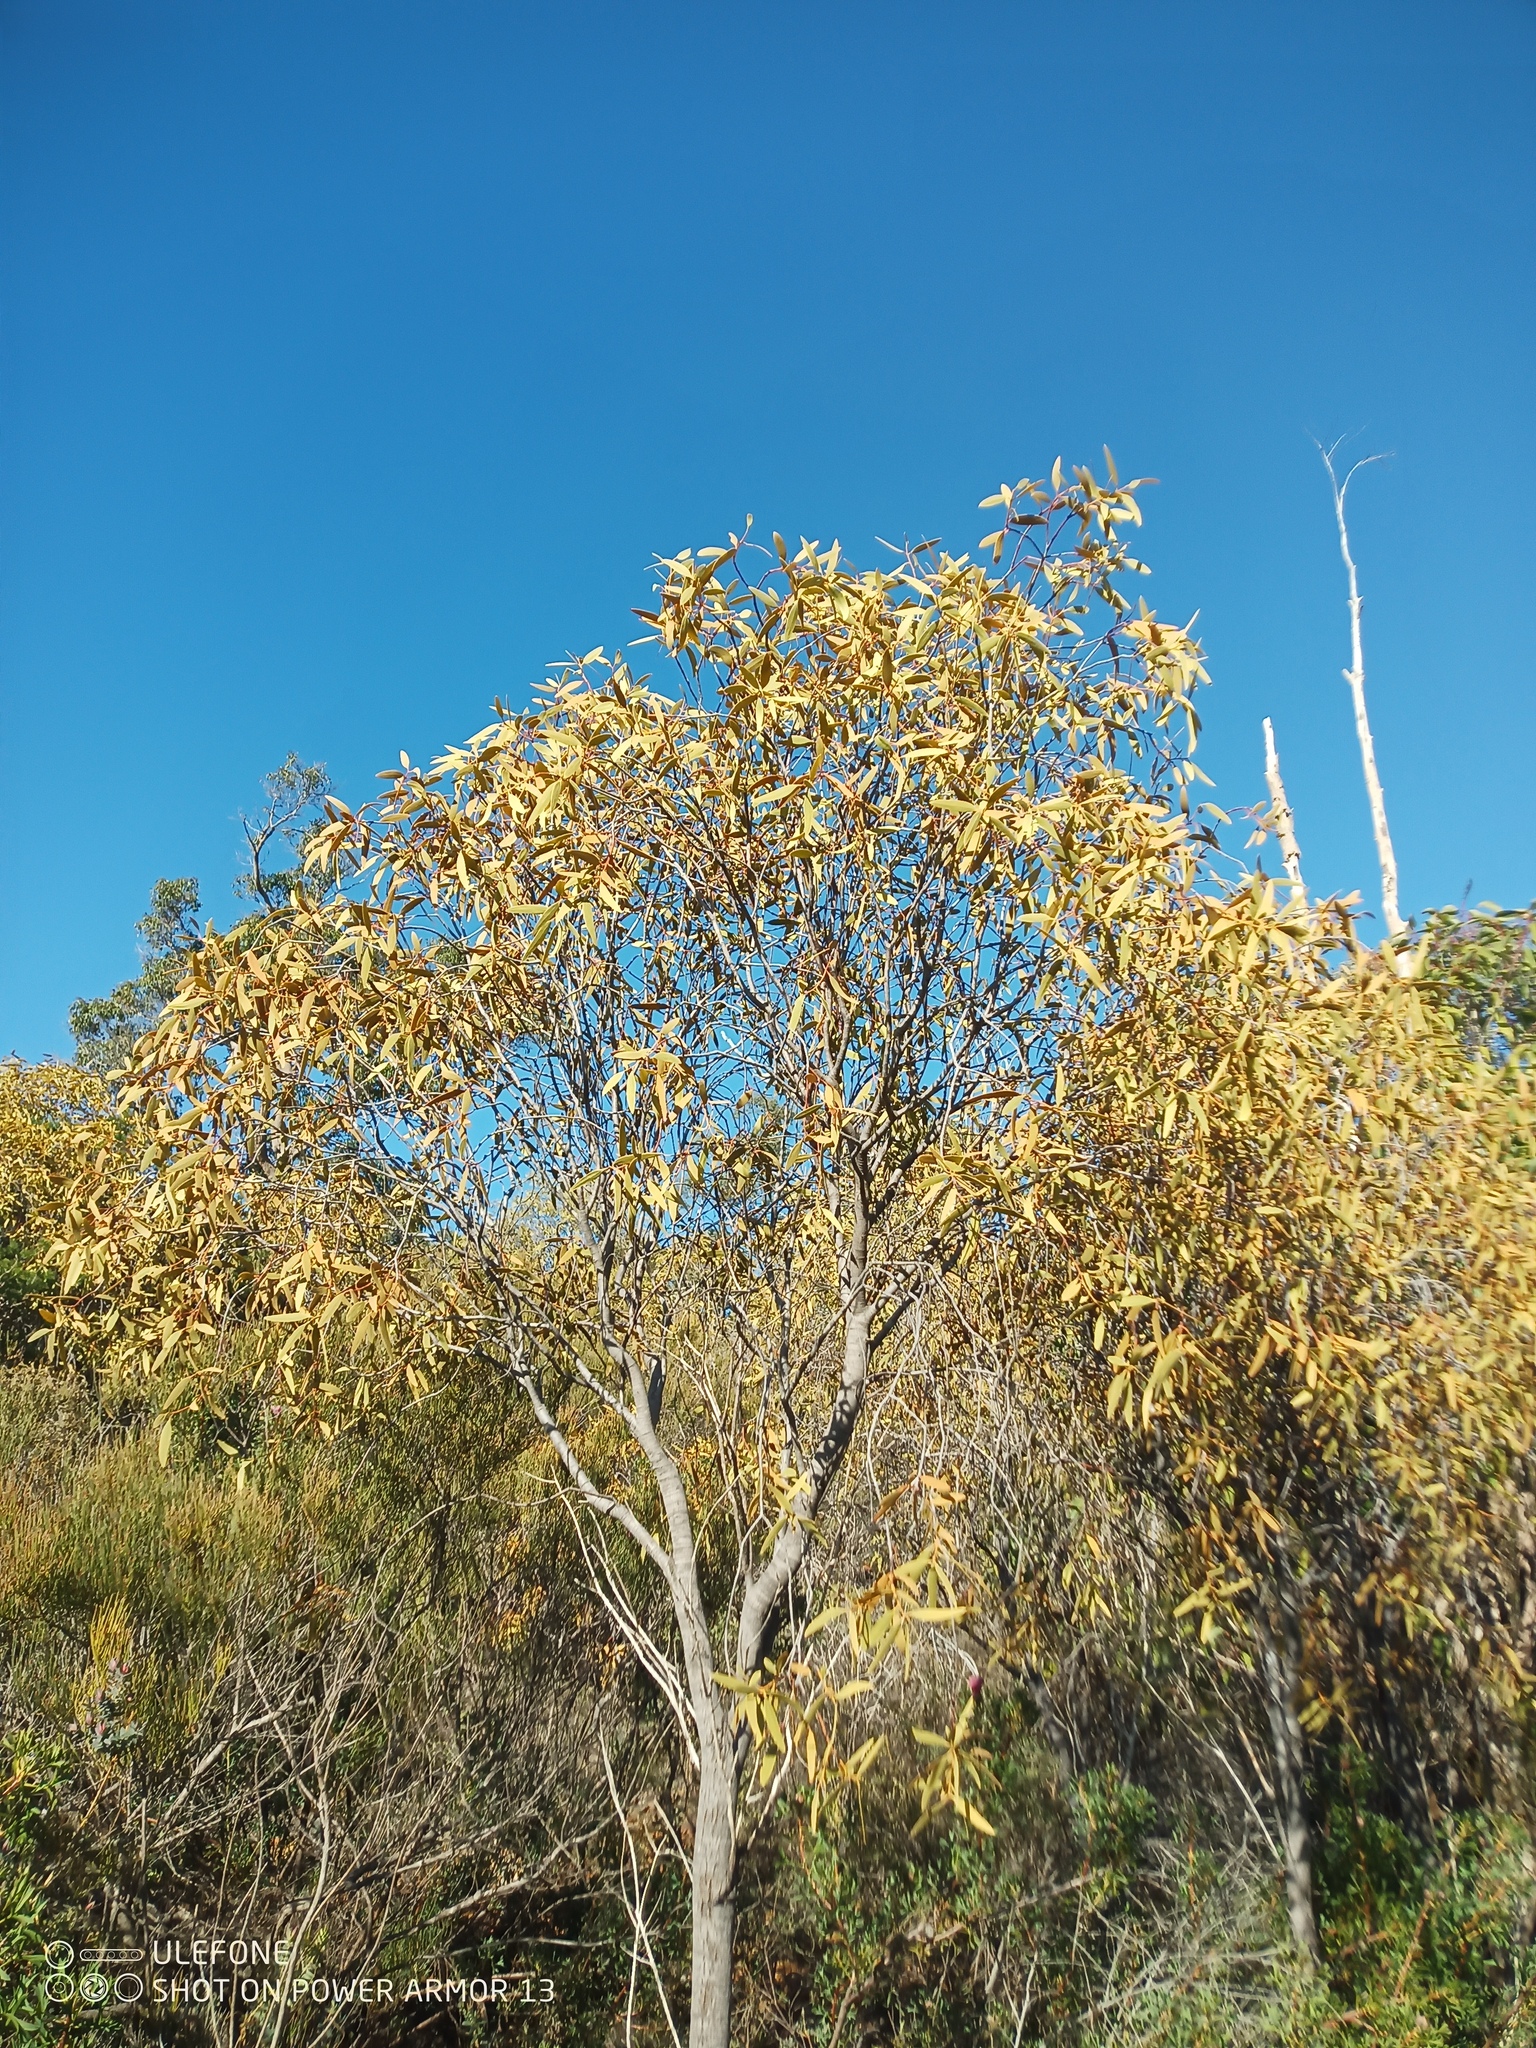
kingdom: Plantae
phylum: Tracheophyta
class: Magnoliopsida
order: Santalales
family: Santalaceae
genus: Santalum
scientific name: Santalum acuminatum
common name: Sweet quandong
